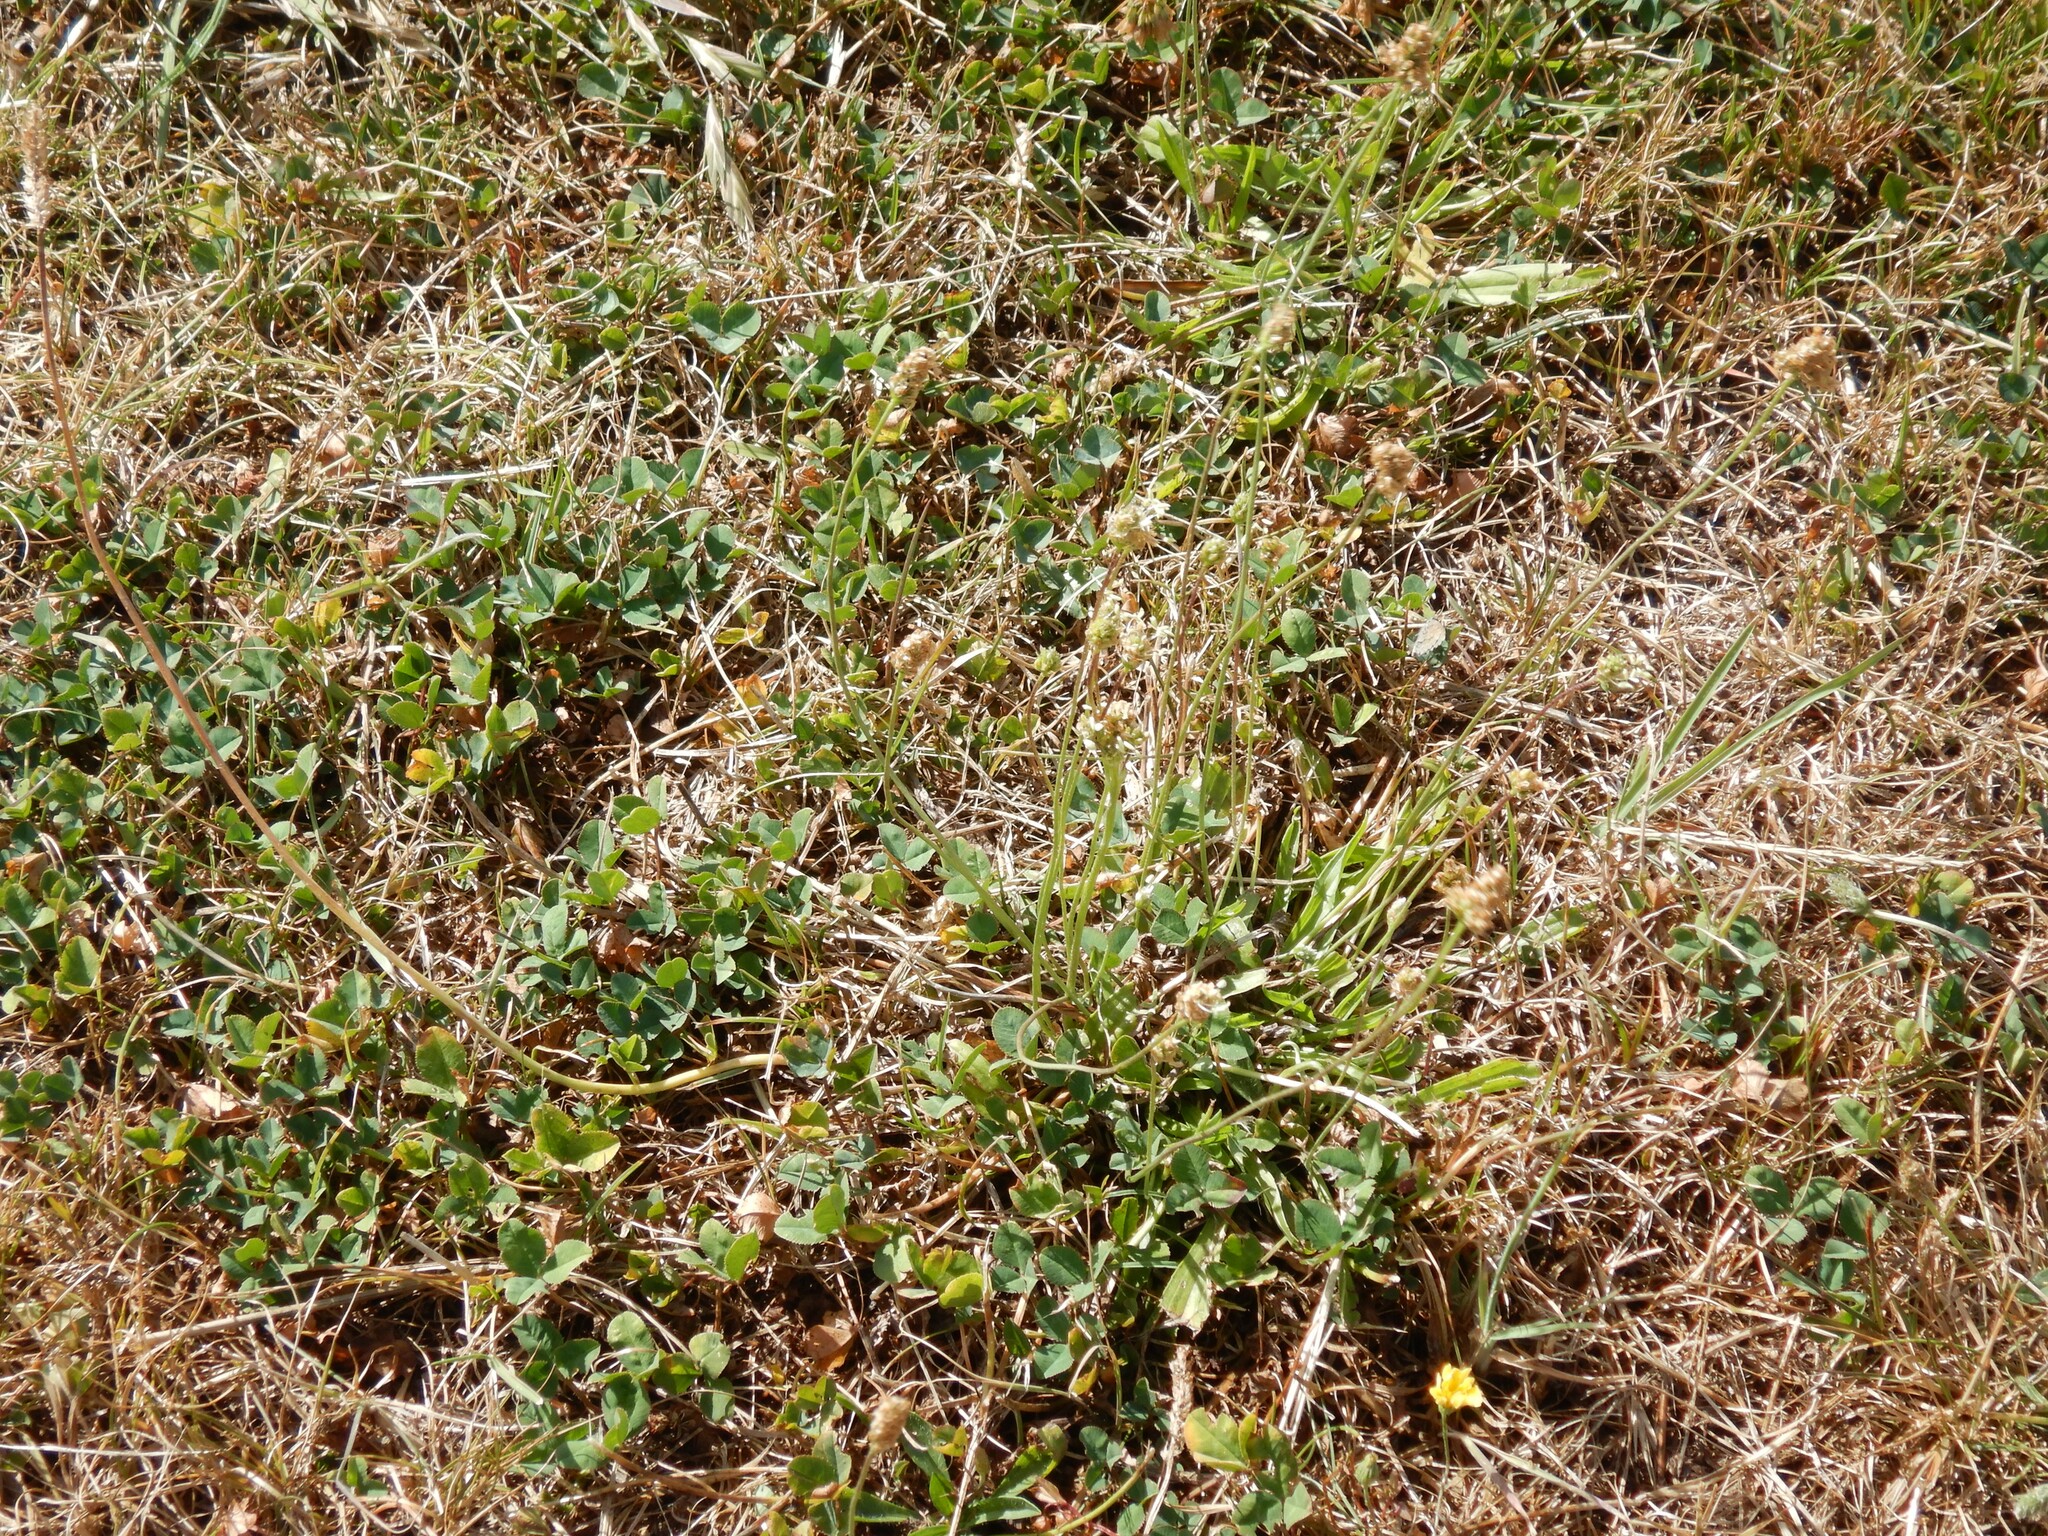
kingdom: Plantae
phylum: Tracheophyta
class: Magnoliopsida
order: Fabales
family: Fabaceae
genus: Trifolium
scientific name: Trifolium repens
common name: White clover
